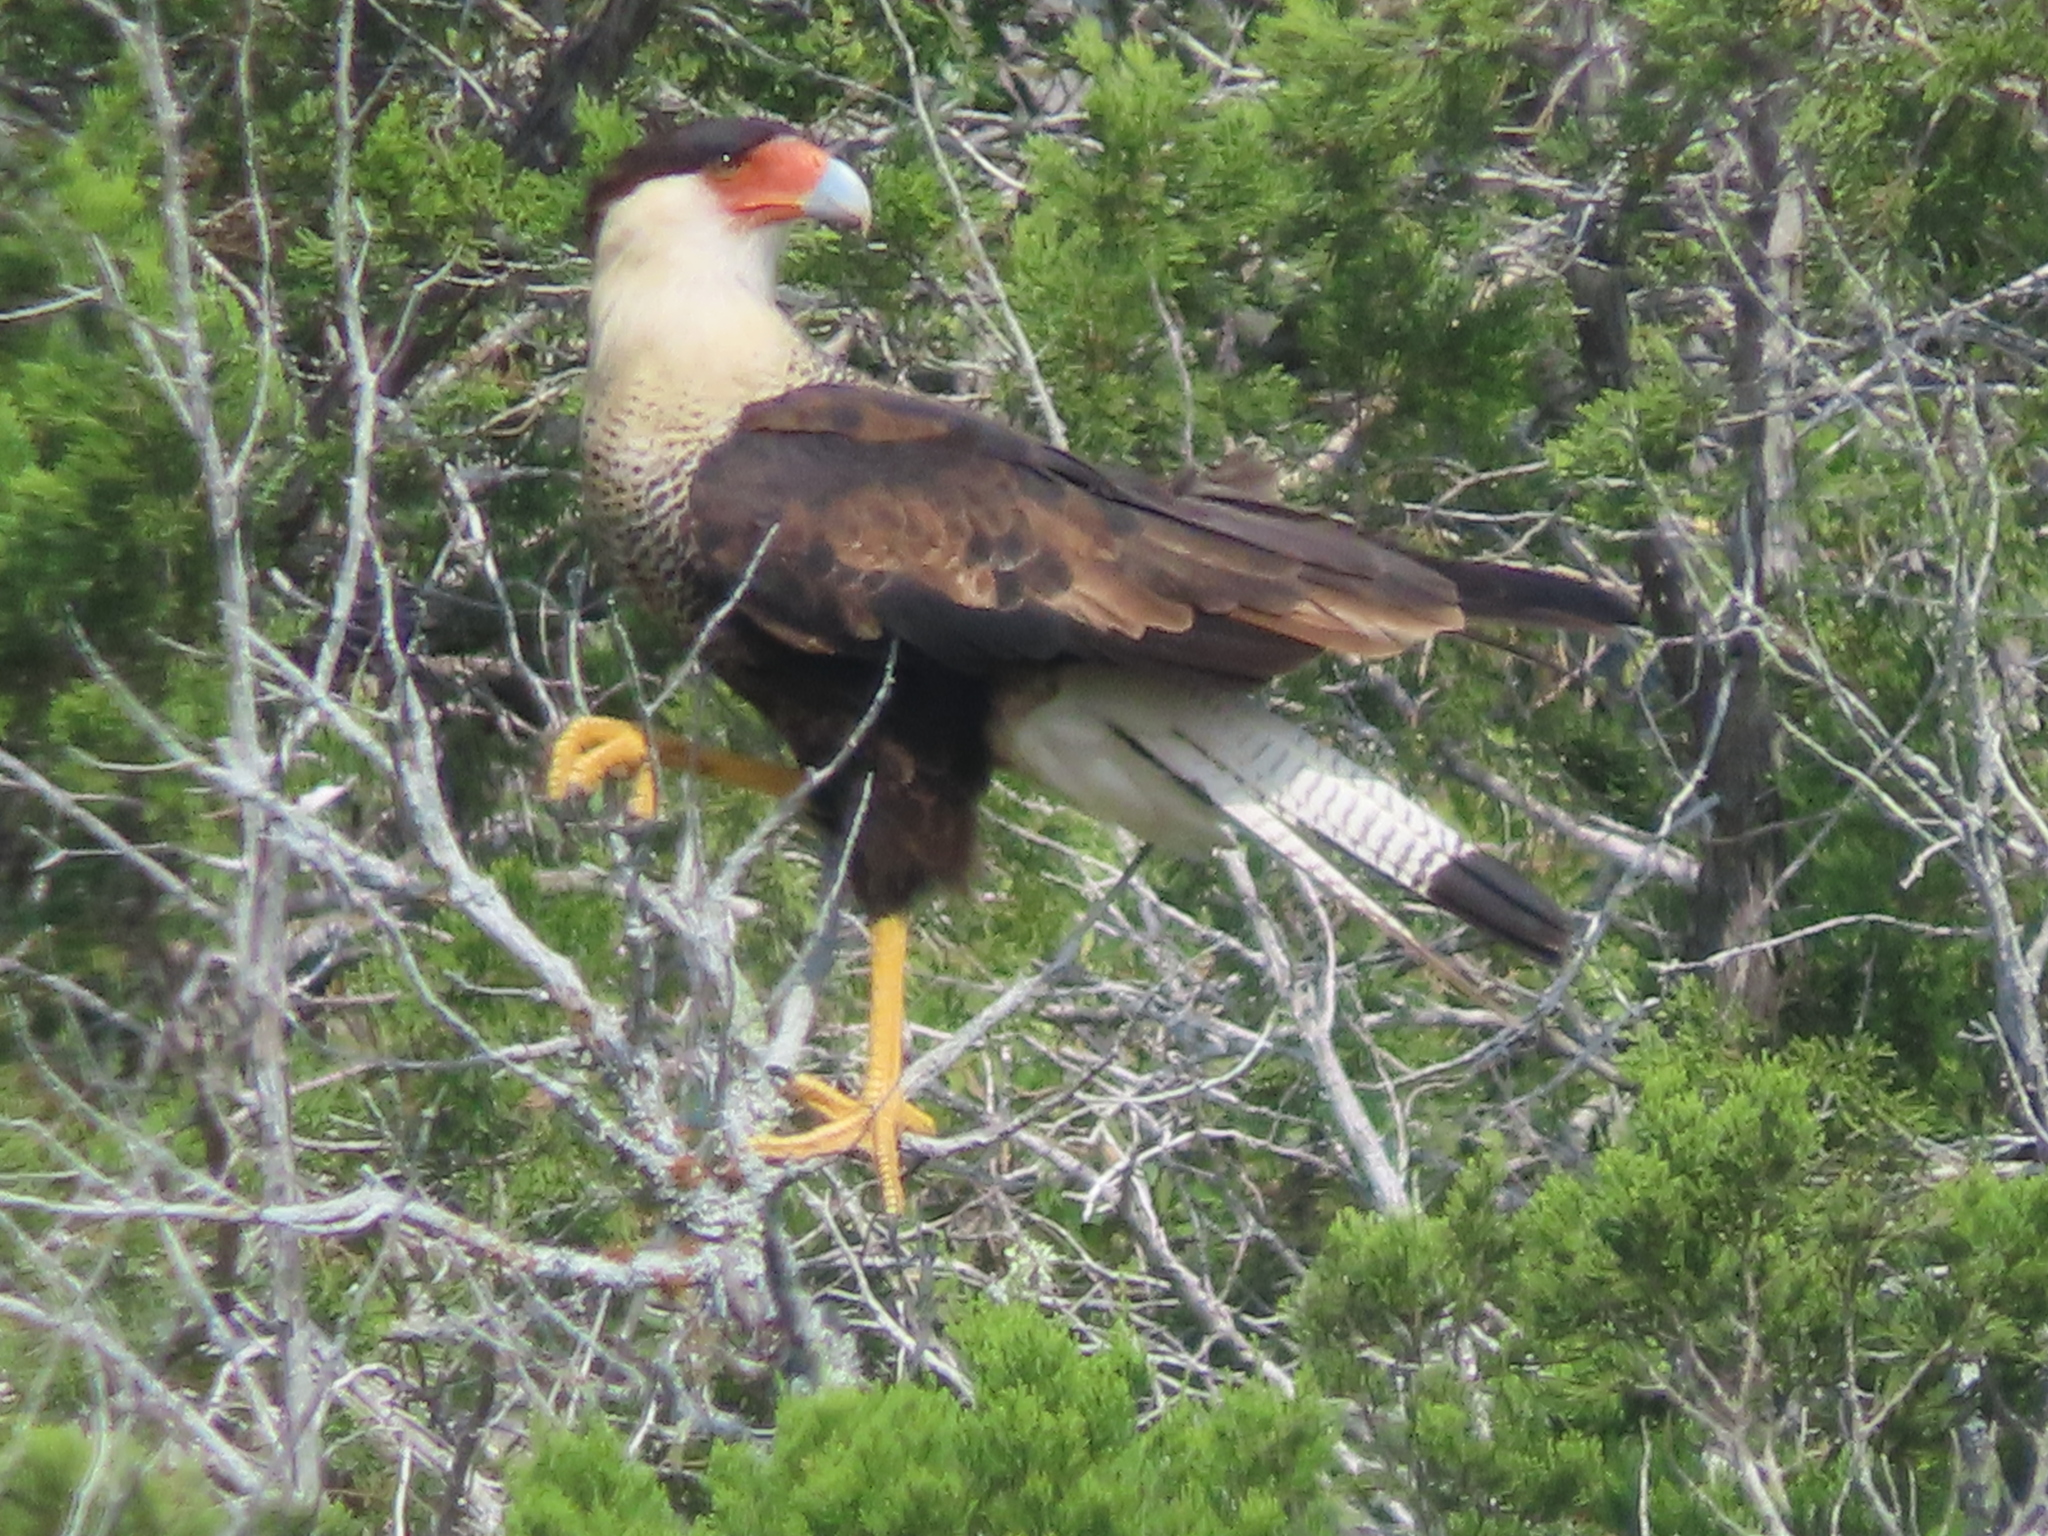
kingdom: Animalia
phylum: Chordata
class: Aves
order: Falconiformes
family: Falconidae
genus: Caracara
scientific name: Caracara plancus
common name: Southern caracara
